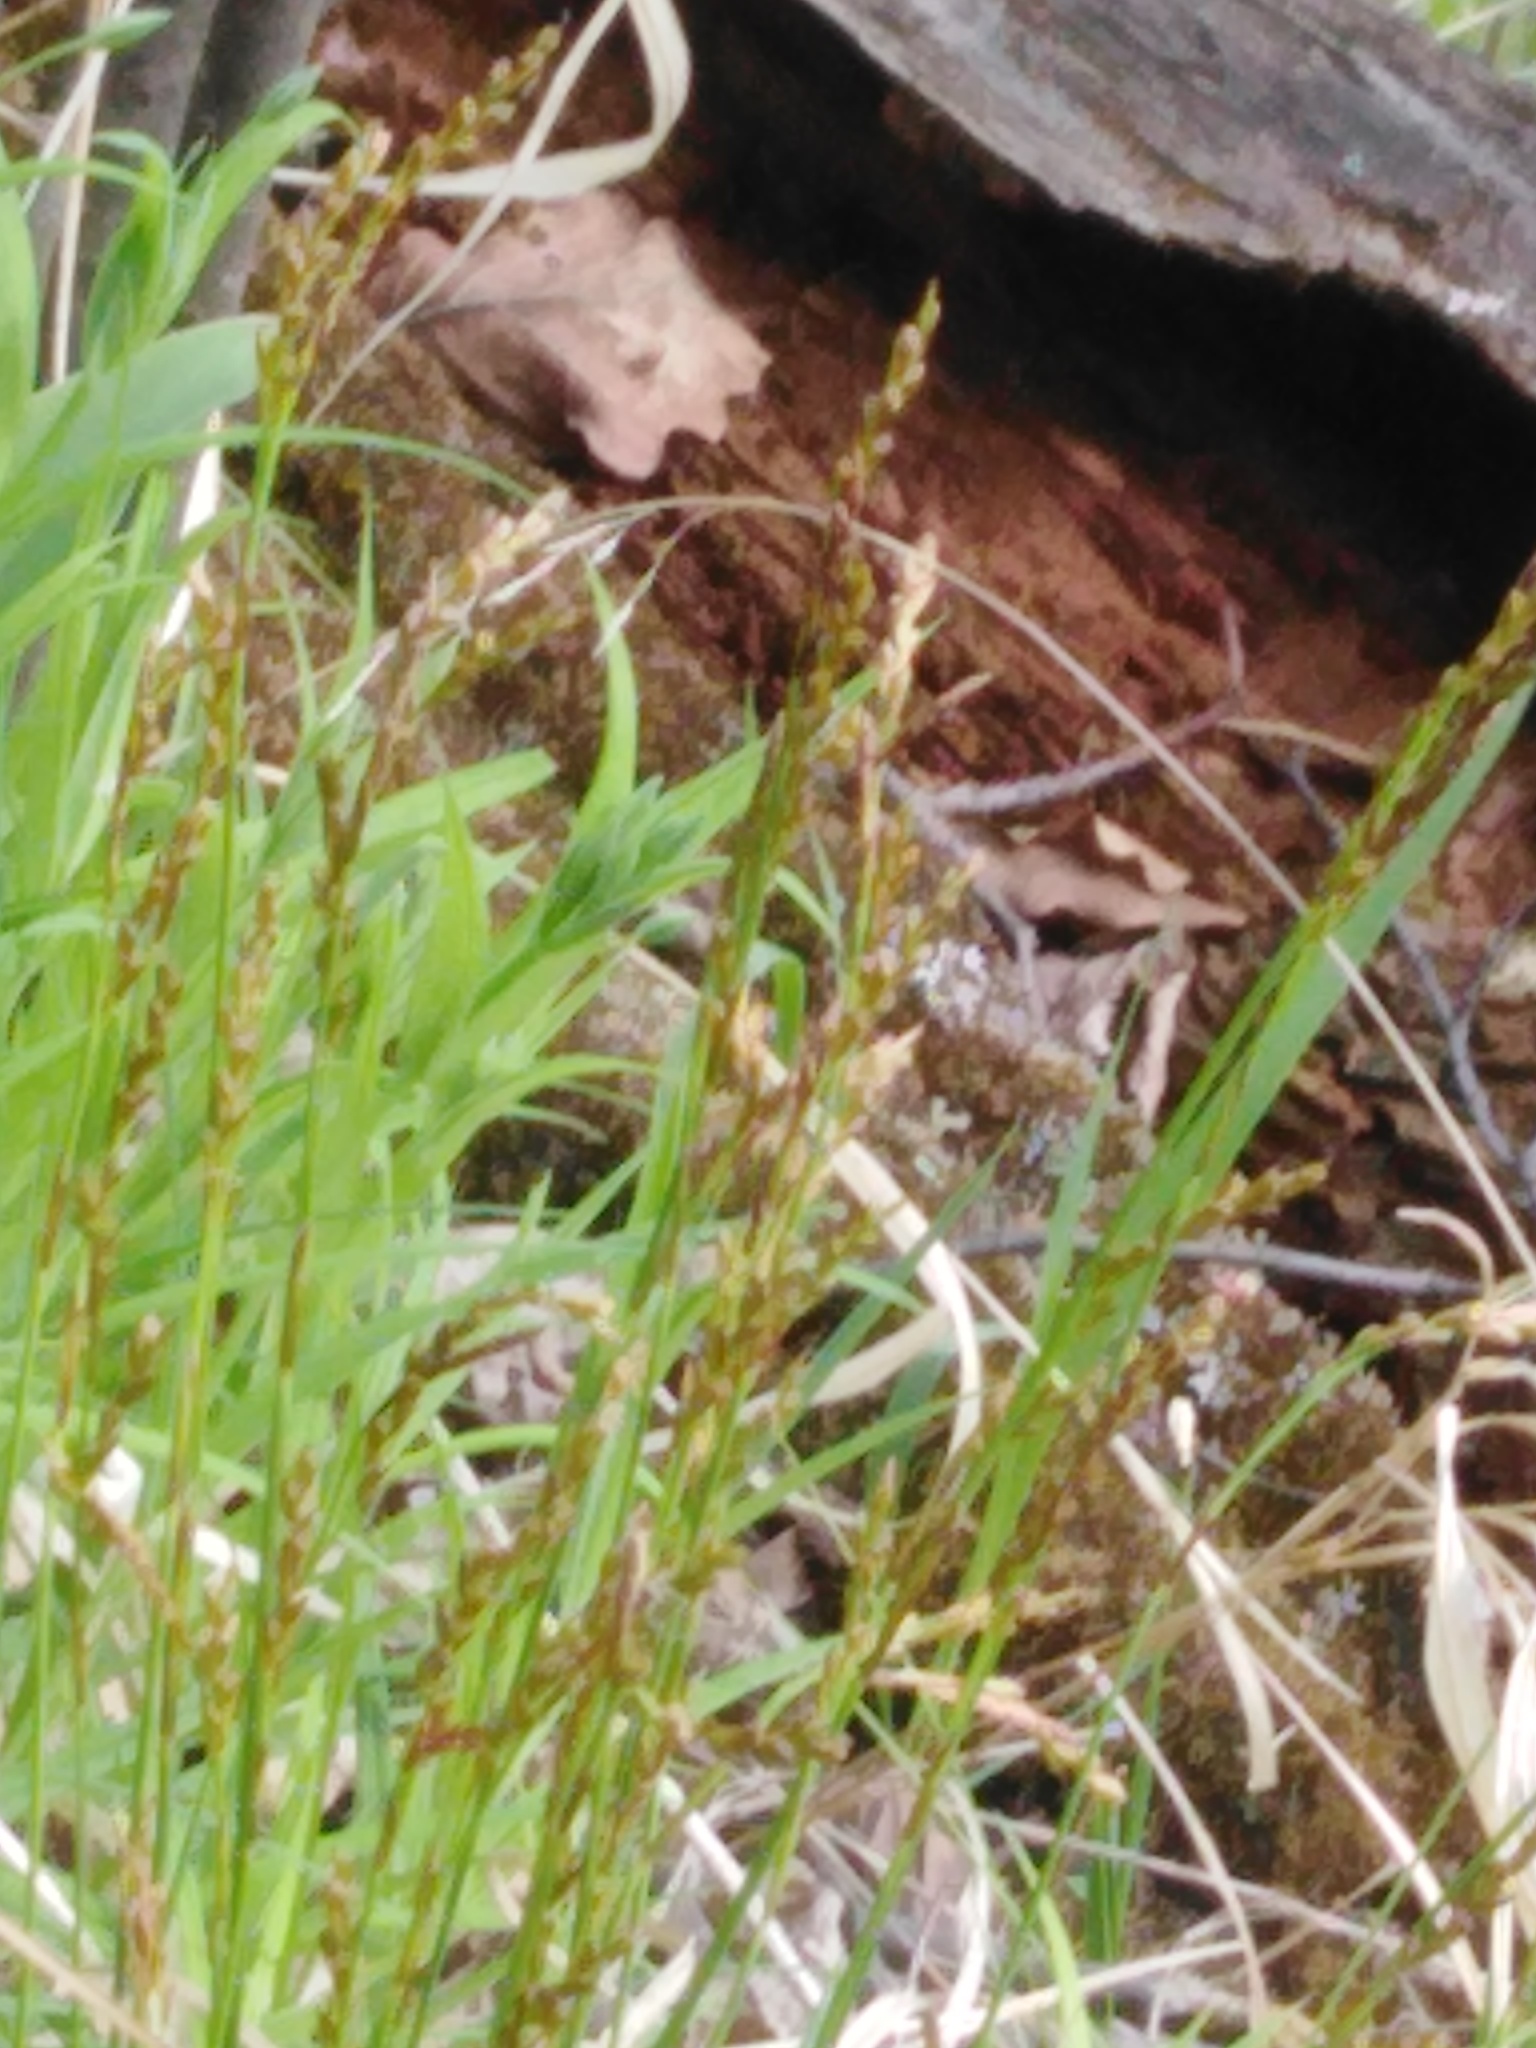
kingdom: Plantae
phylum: Tracheophyta
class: Liliopsida
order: Poales
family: Cyperaceae
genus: Carex
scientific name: Carex digitata
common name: Fingered sedge
